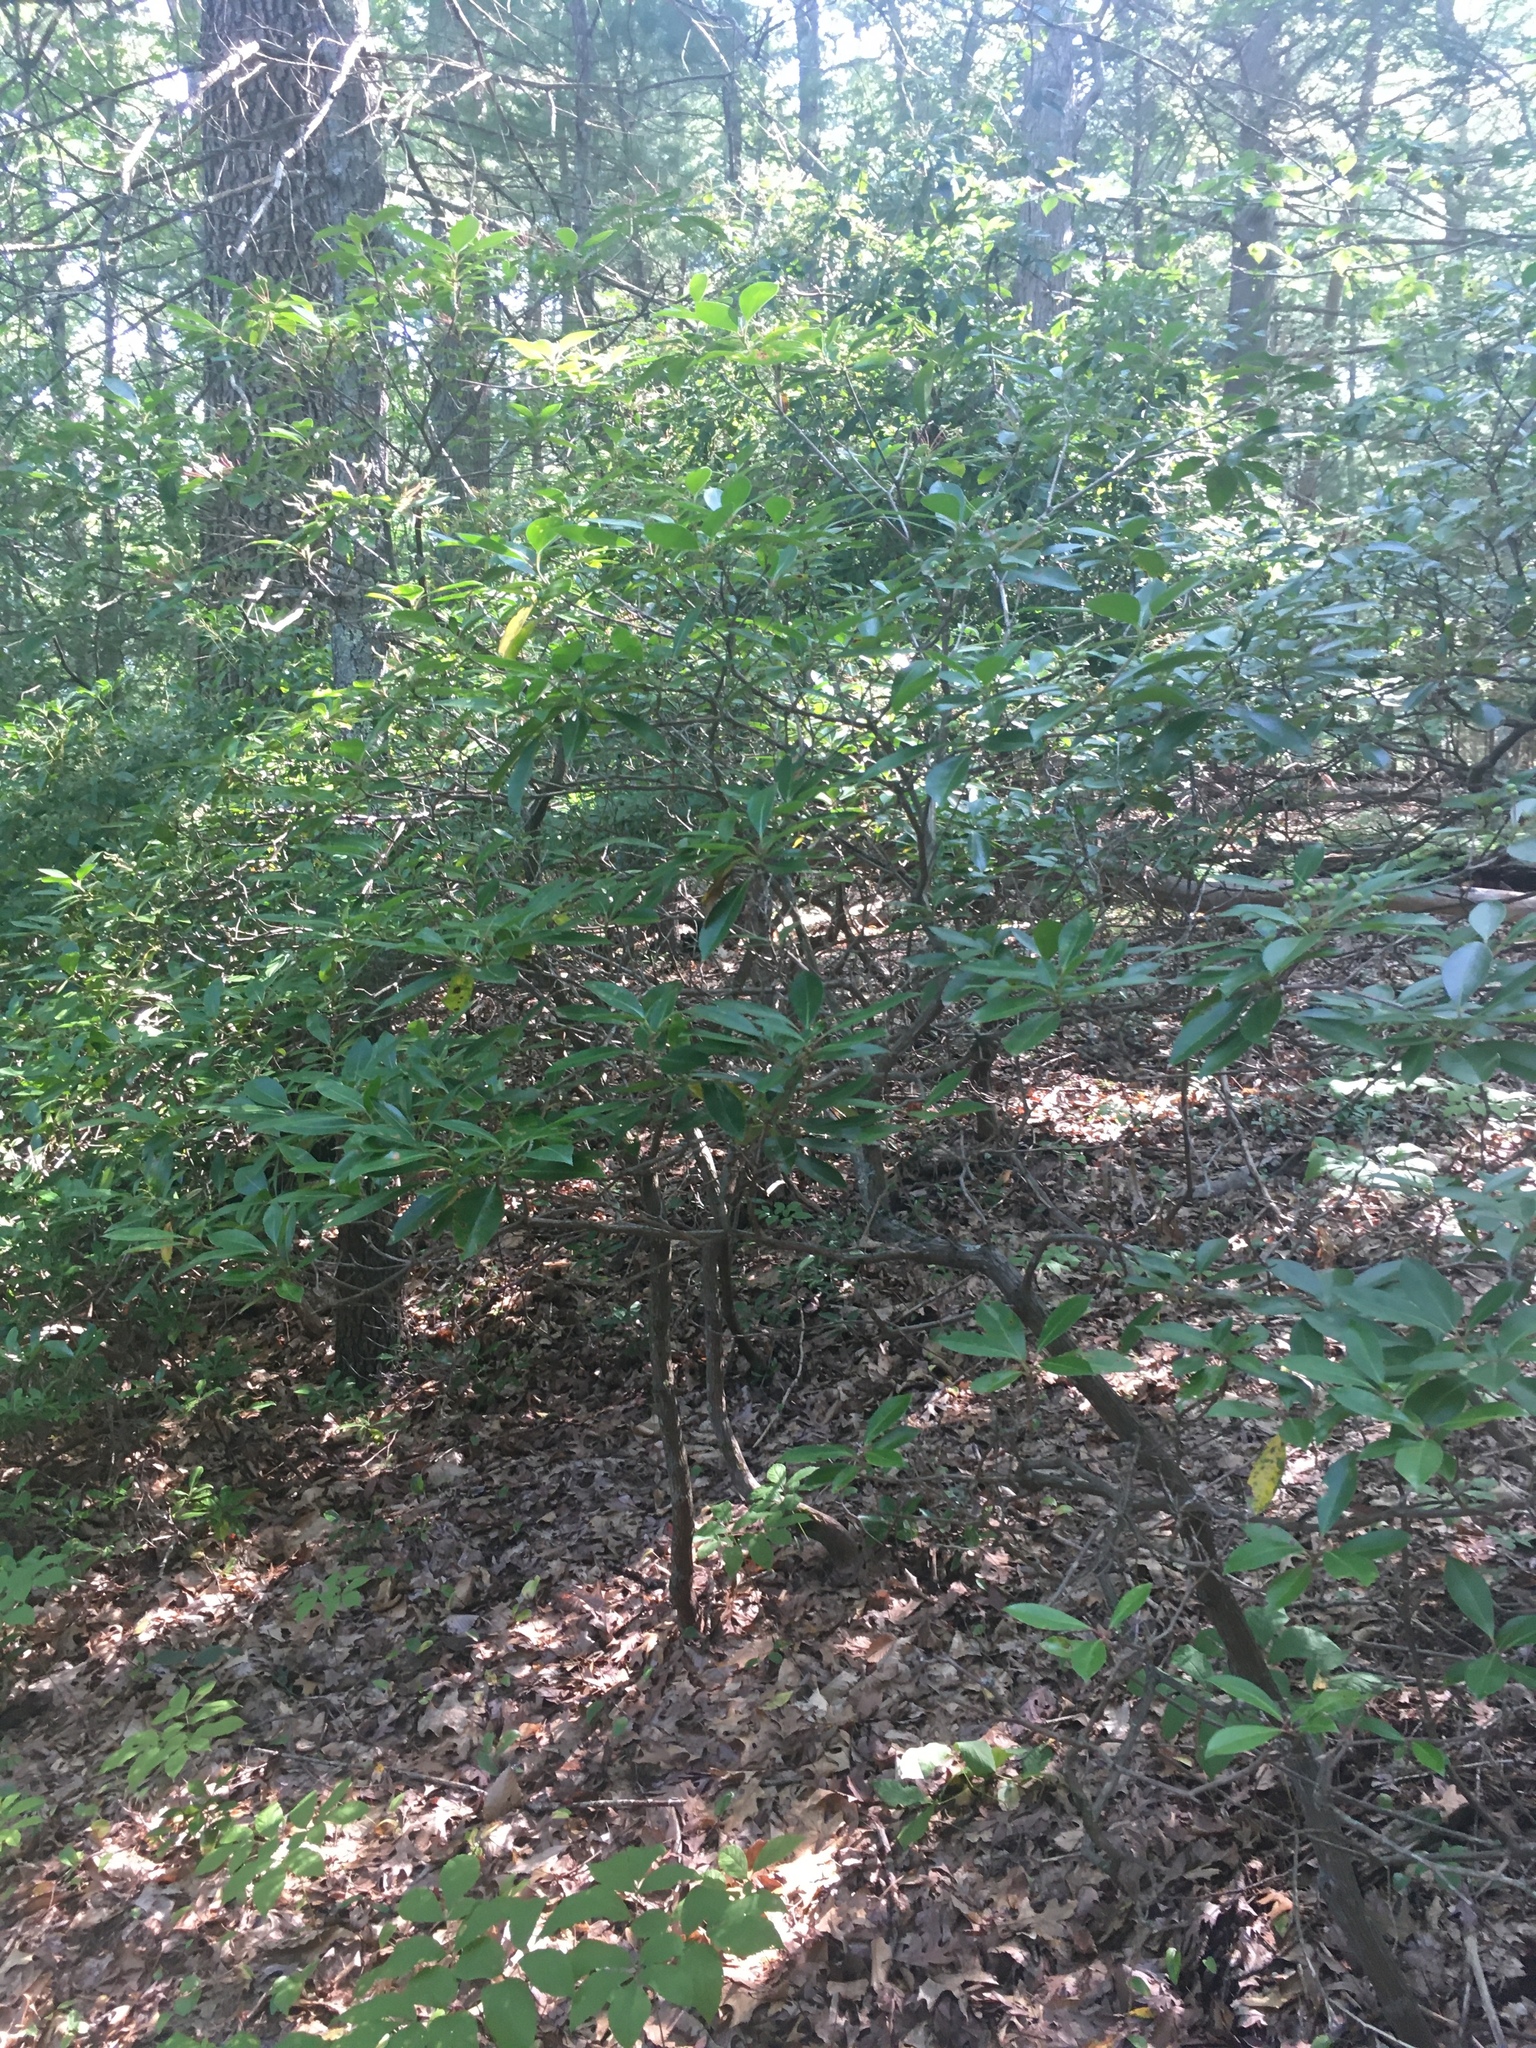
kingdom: Plantae
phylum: Tracheophyta
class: Magnoliopsida
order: Ericales
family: Ericaceae
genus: Kalmia
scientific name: Kalmia latifolia
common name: Mountain-laurel
